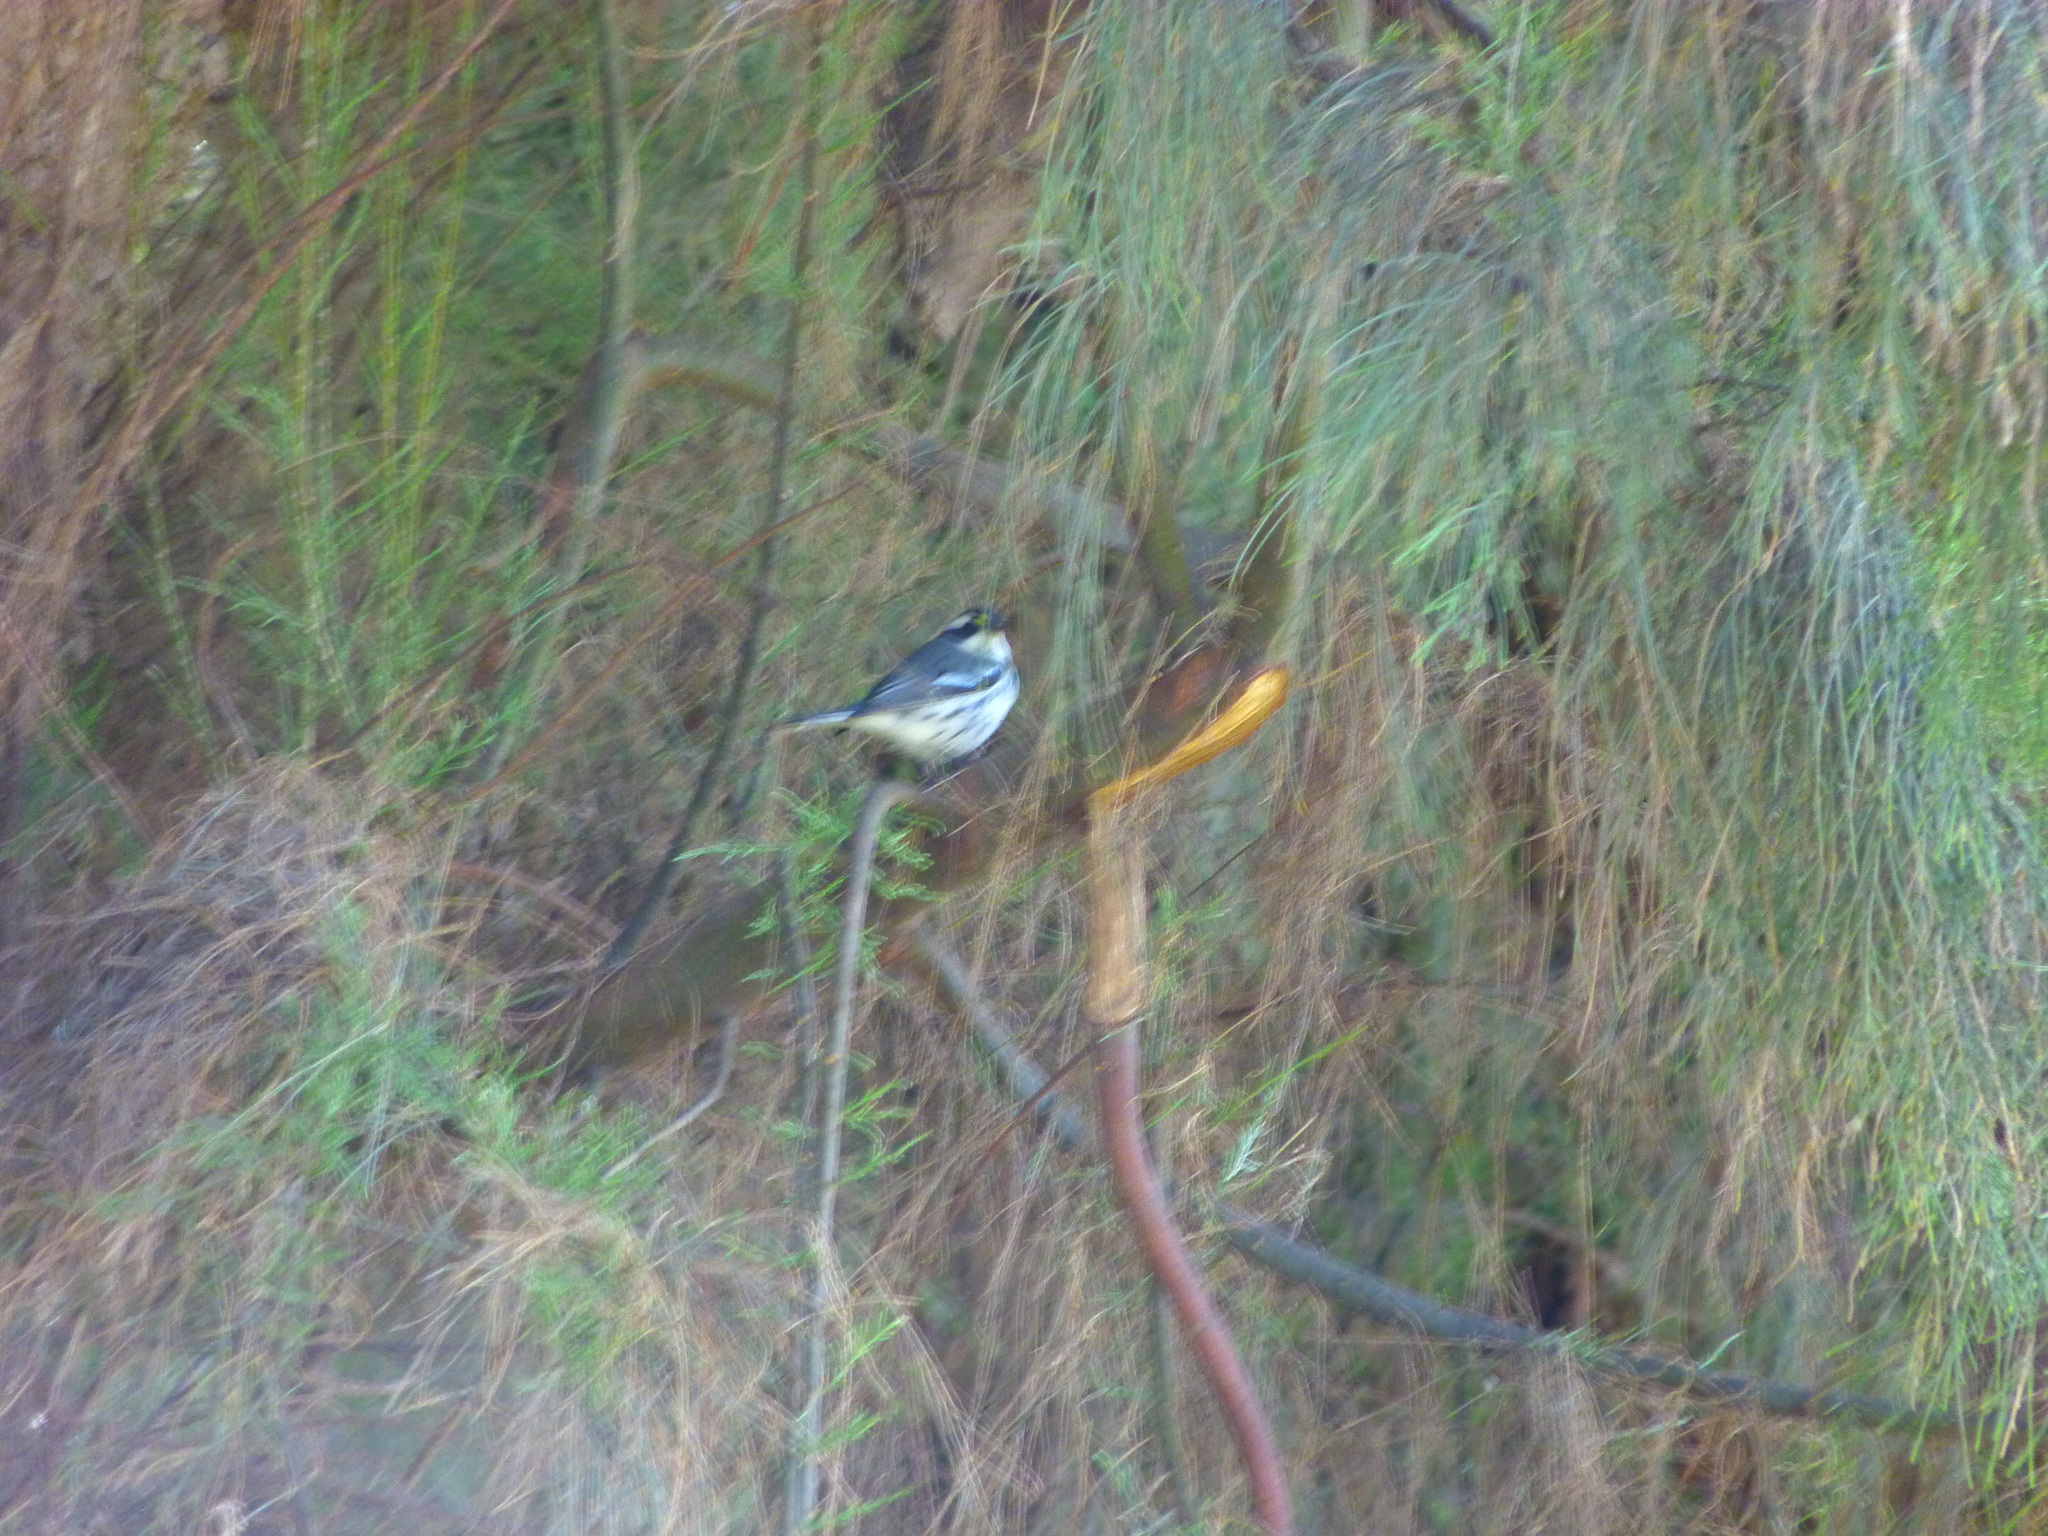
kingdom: Animalia
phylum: Chordata
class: Aves
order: Passeriformes
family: Parulidae
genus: Setophaga
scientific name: Setophaga nigrescens
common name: Black-throated gray warbler
